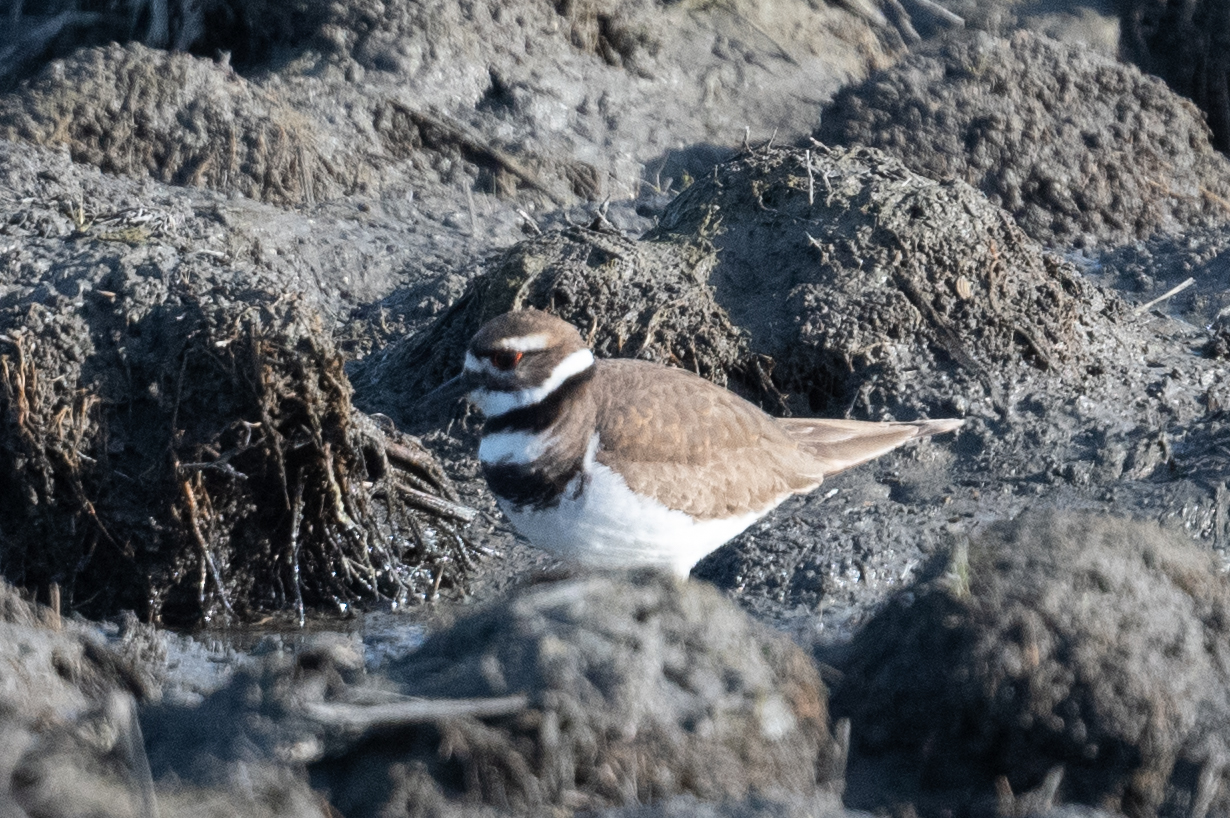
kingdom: Animalia
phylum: Chordata
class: Aves
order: Charadriiformes
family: Charadriidae
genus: Charadrius
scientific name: Charadrius vociferus
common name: Killdeer
